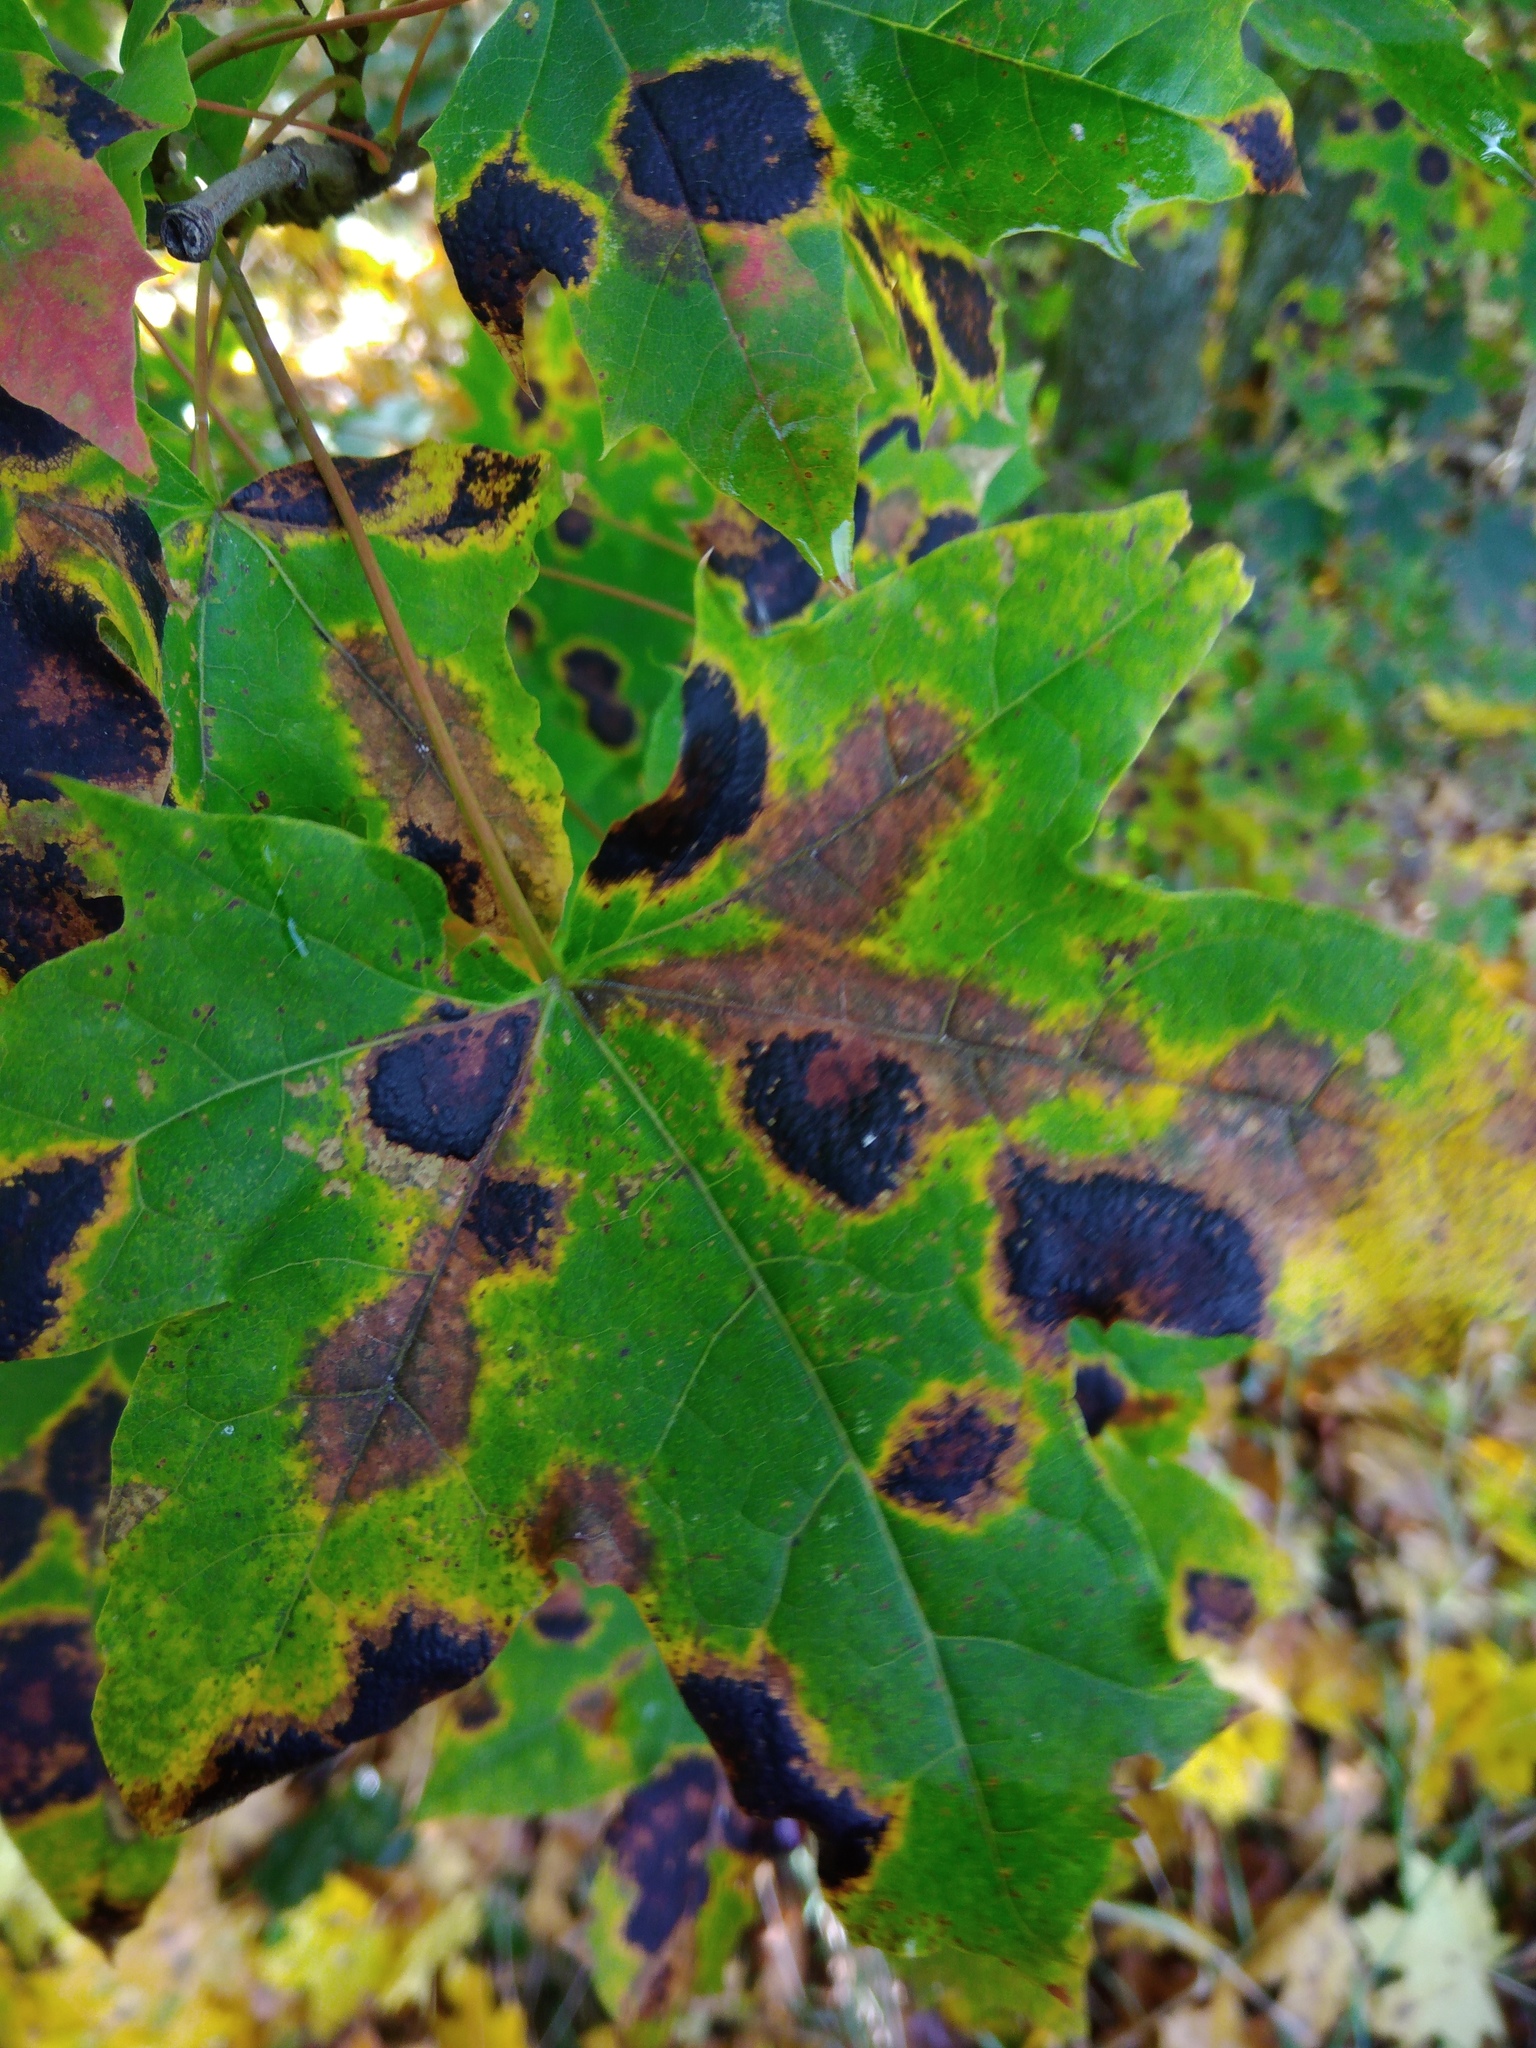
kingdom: Fungi
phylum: Ascomycota
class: Leotiomycetes
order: Rhytismatales
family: Rhytismataceae
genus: Rhytisma
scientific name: Rhytisma acerinum
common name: European tar spot
